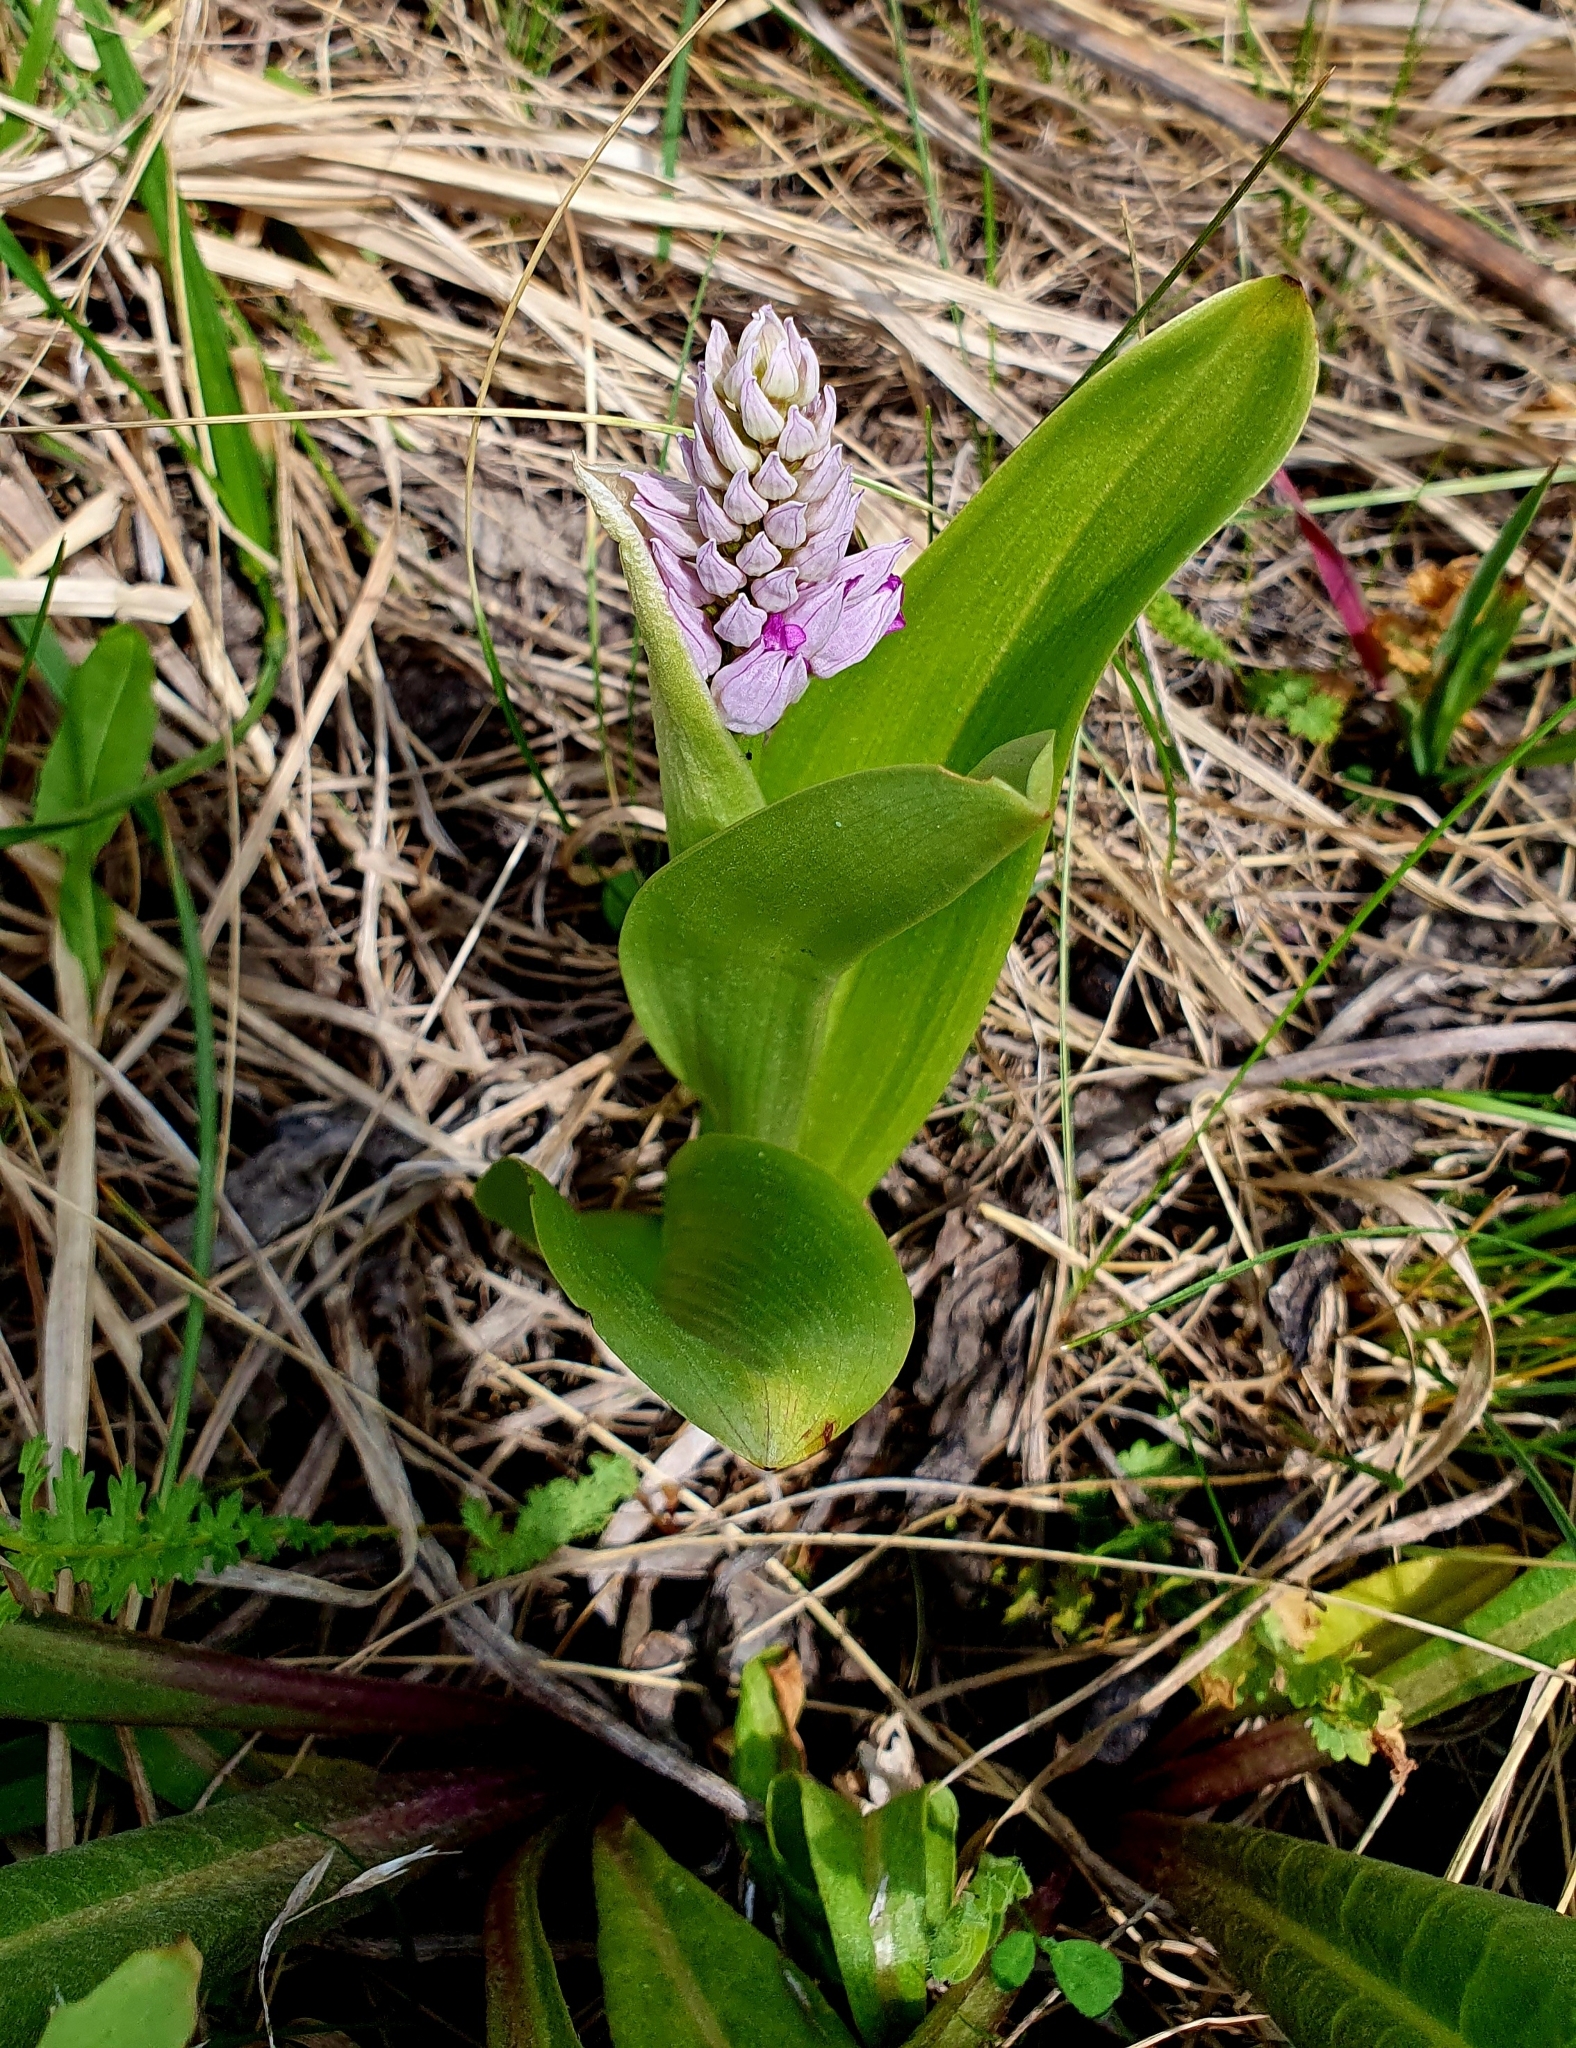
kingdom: Plantae
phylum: Tracheophyta
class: Liliopsida
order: Asparagales
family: Orchidaceae
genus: Orchis
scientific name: Orchis militaris
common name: Military orchid
